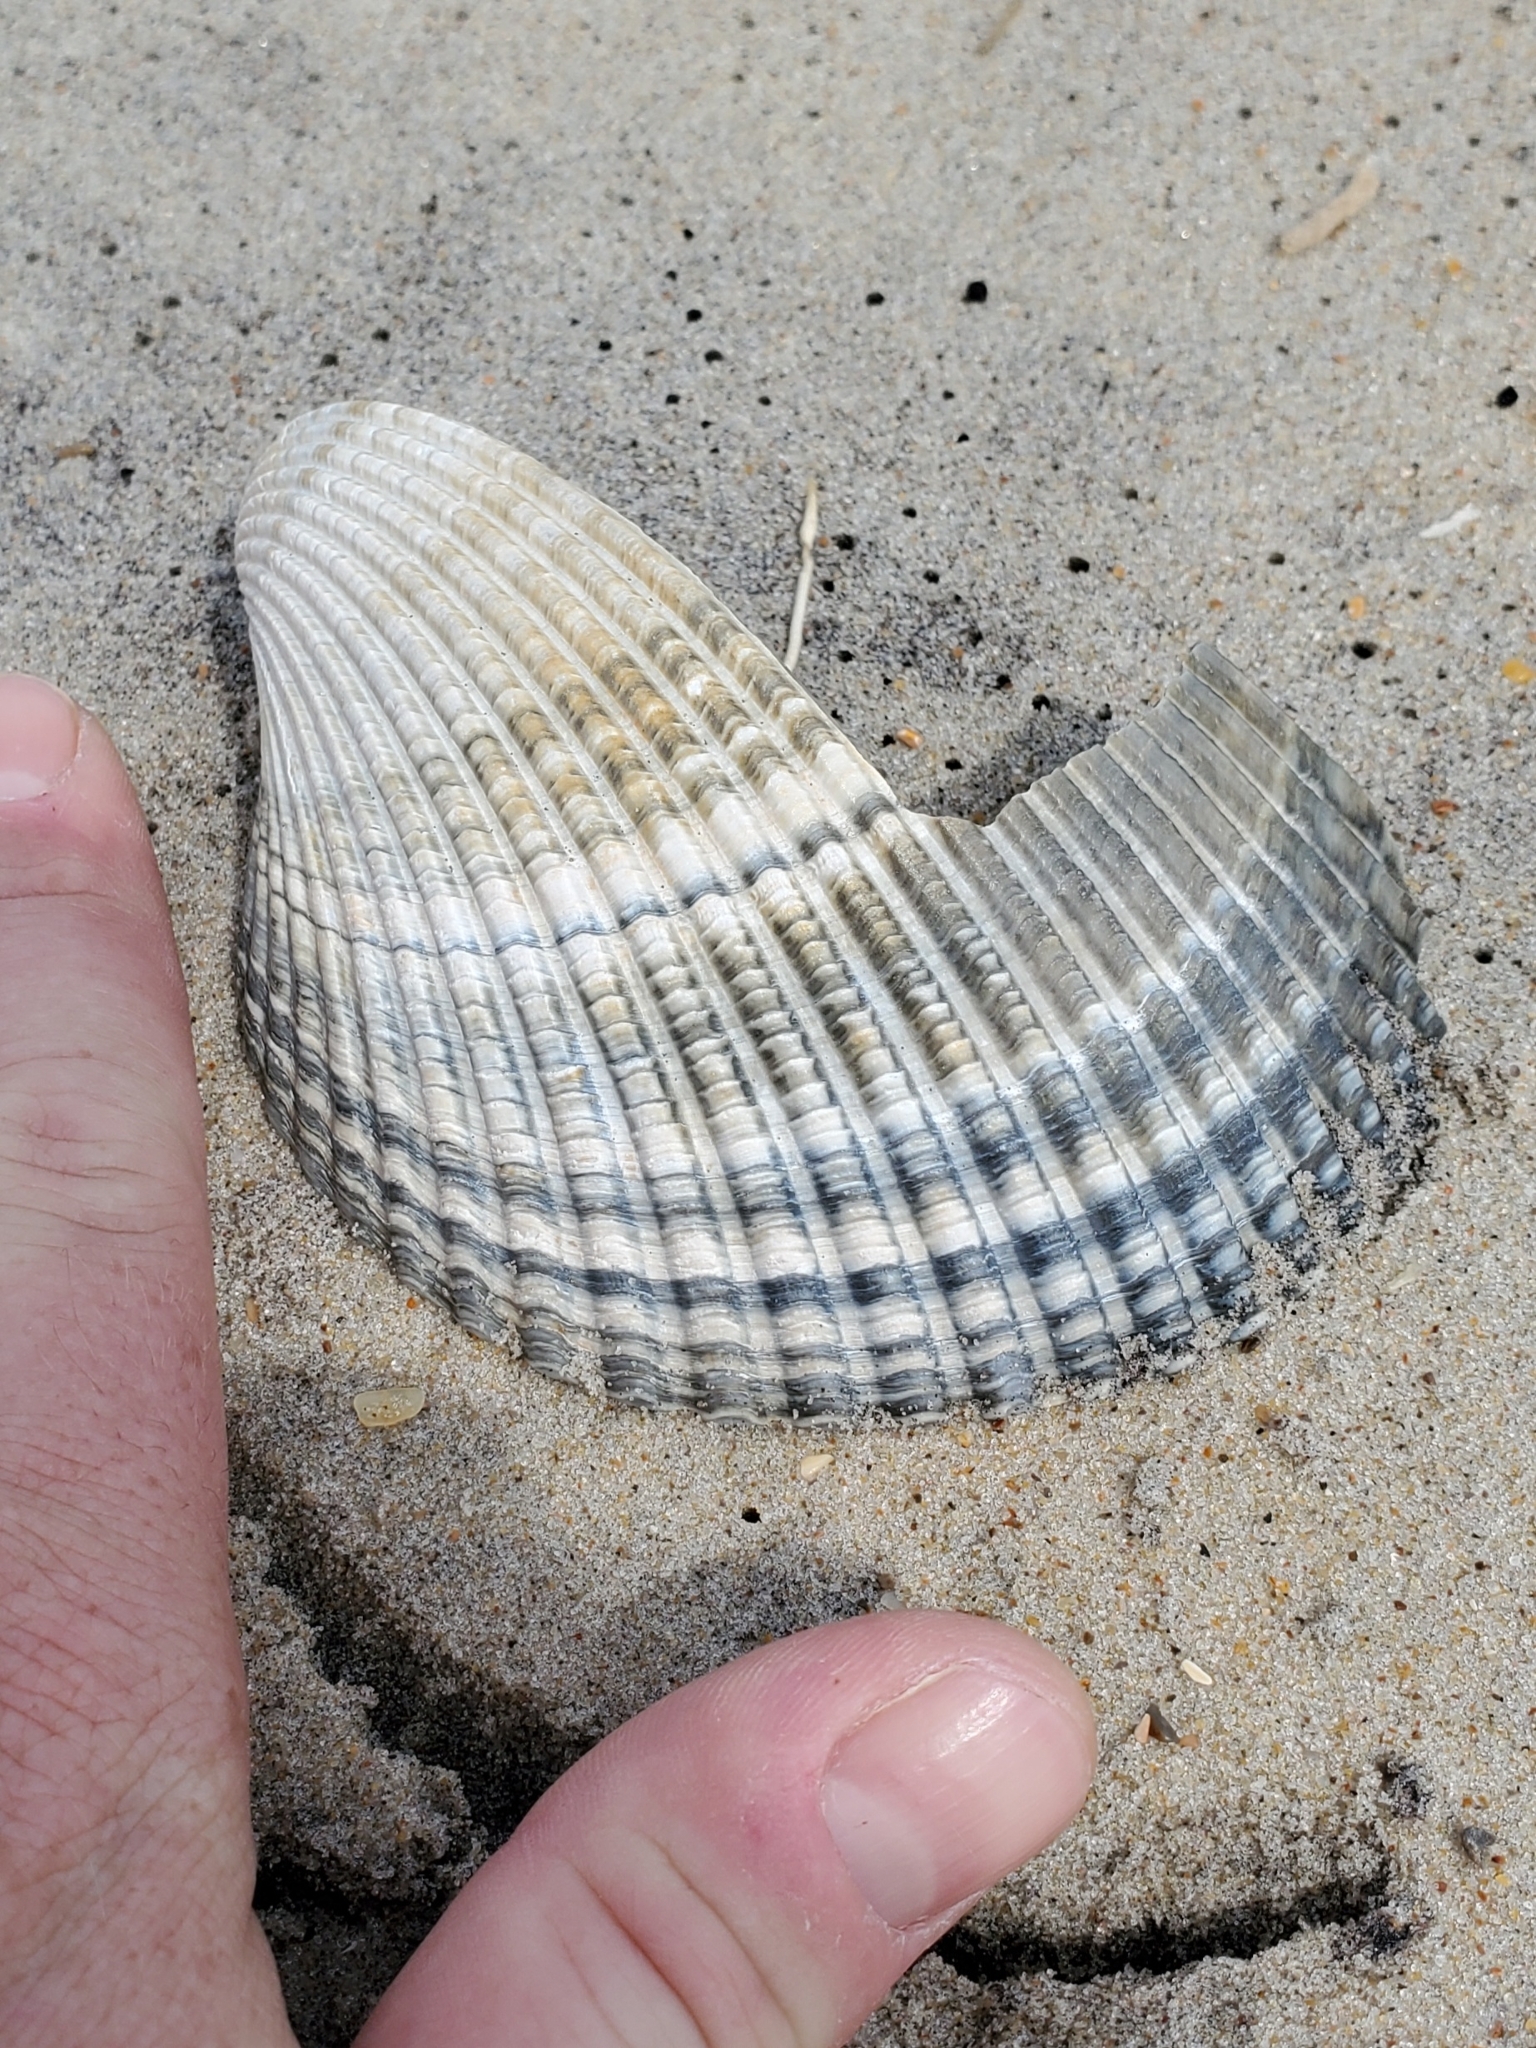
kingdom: Animalia
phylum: Mollusca
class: Bivalvia
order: Cardiida
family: Cardiidae
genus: Dinocardium
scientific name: Dinocardium robustum
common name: Atlantic giant cockle
